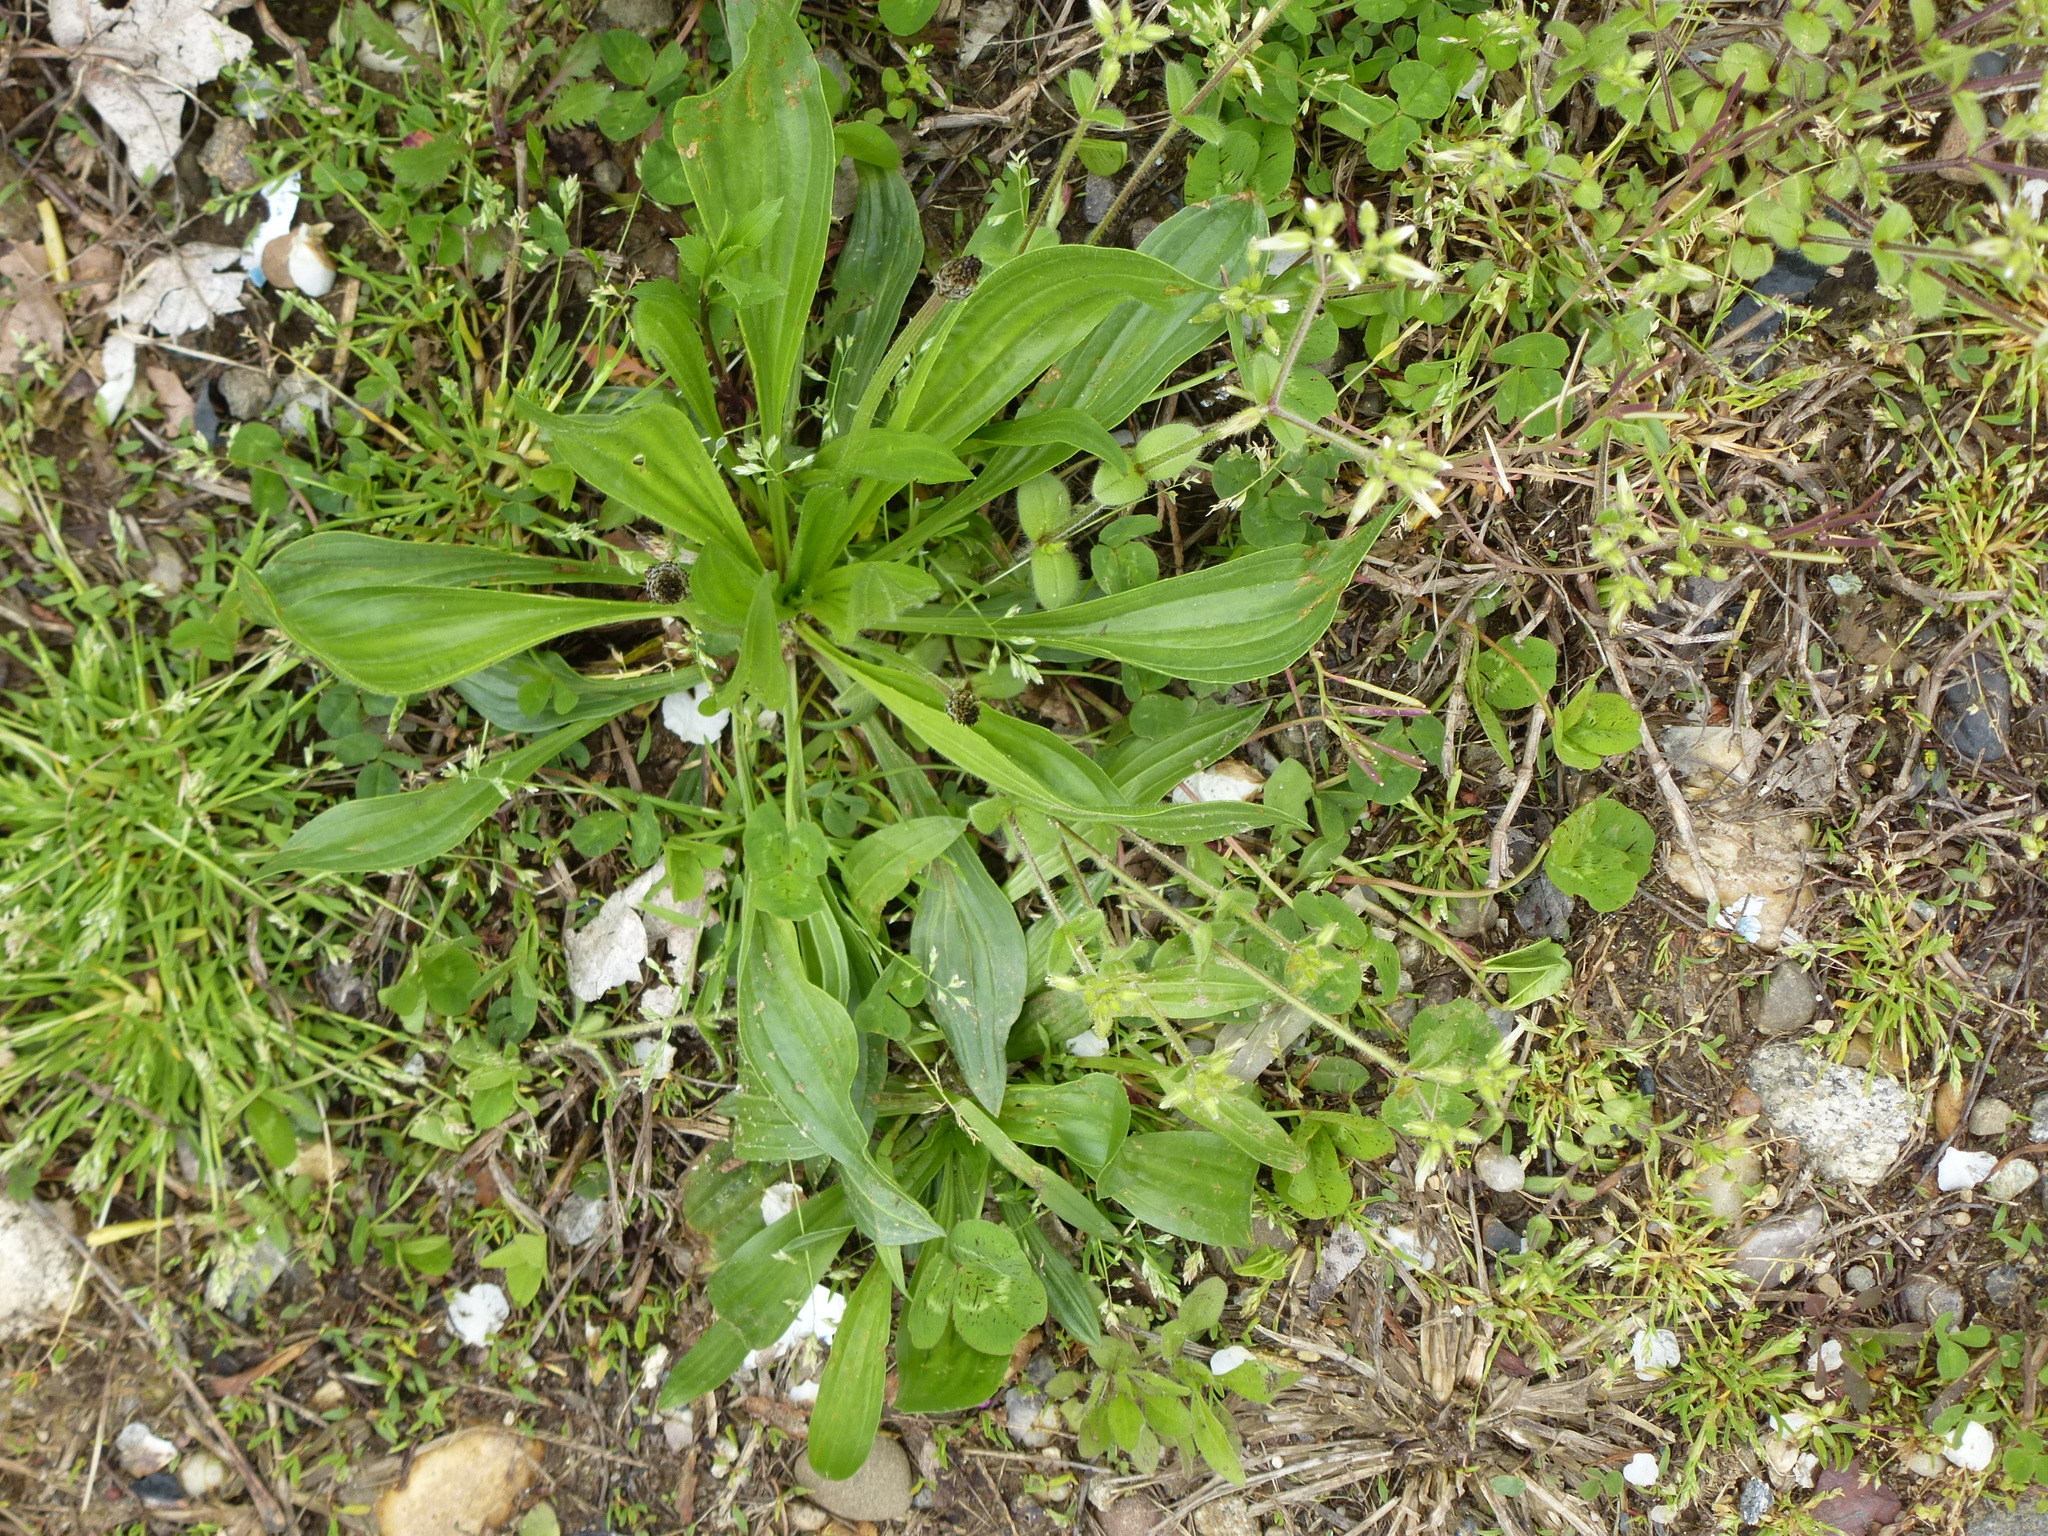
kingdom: Plantae
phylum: Tracheophyta
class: Magnoliopsida
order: Lamiales
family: Plantaginaceae
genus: Plantago
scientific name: Plantago lanceolata
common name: Ribwort plantain
